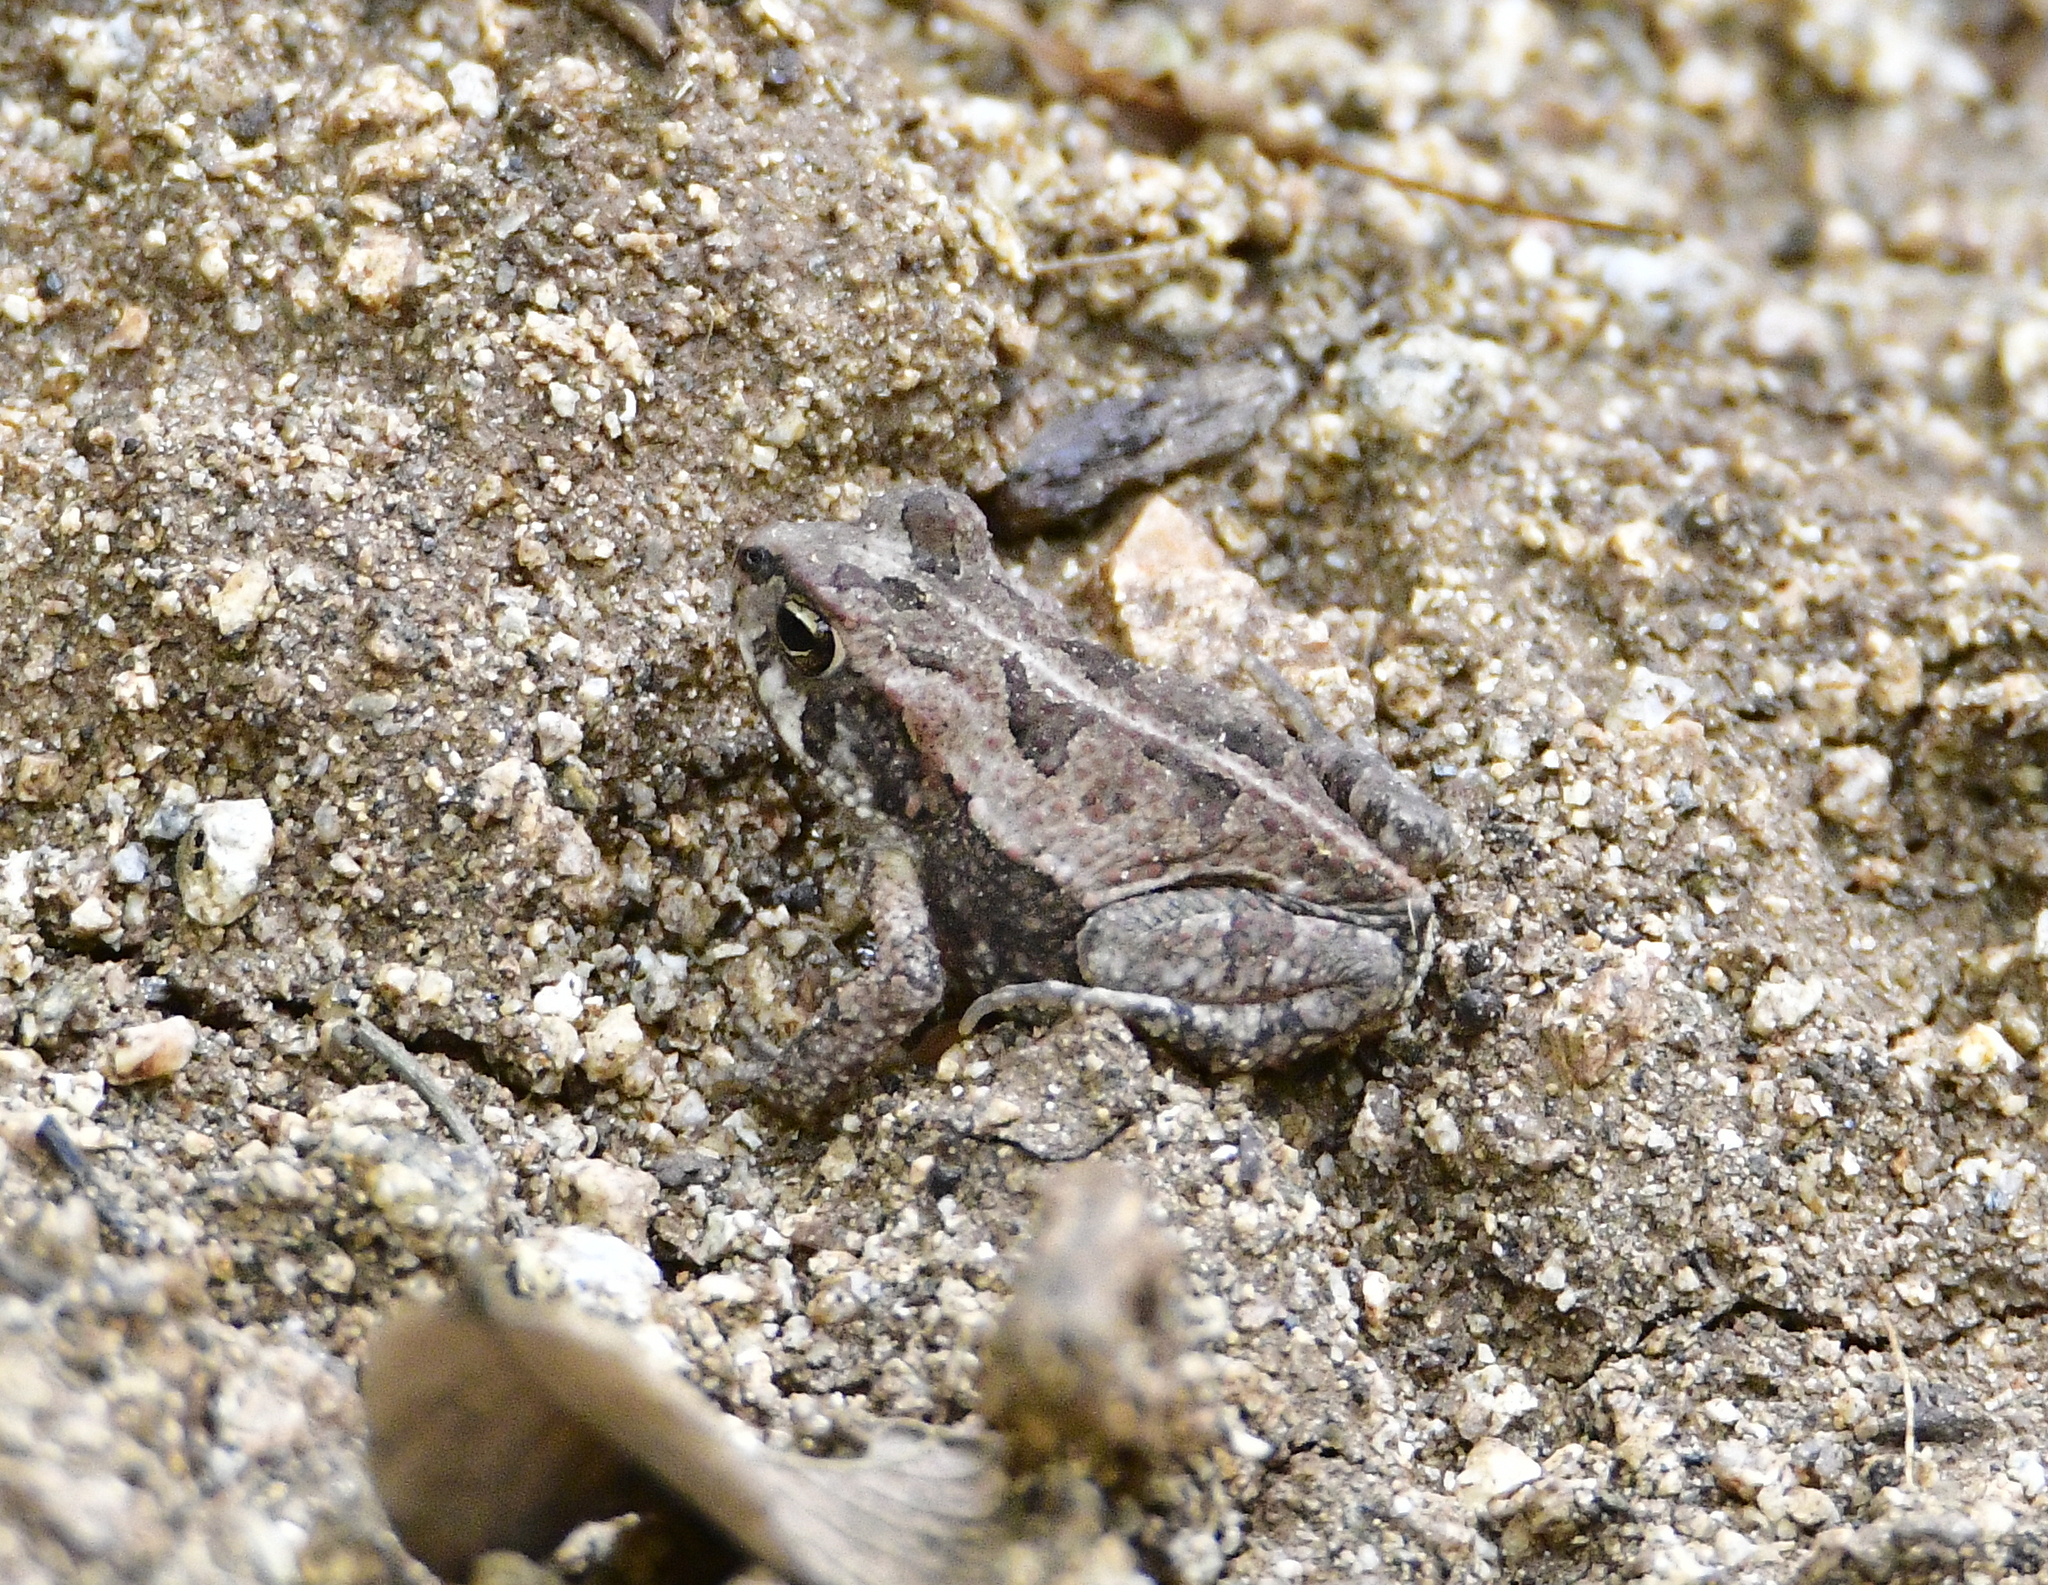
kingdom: Animalia
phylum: Chordata
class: Amphibia
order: Anura
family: Bufonidae
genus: Incilius
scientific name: Incilius marmoreus
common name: Marbled toad
